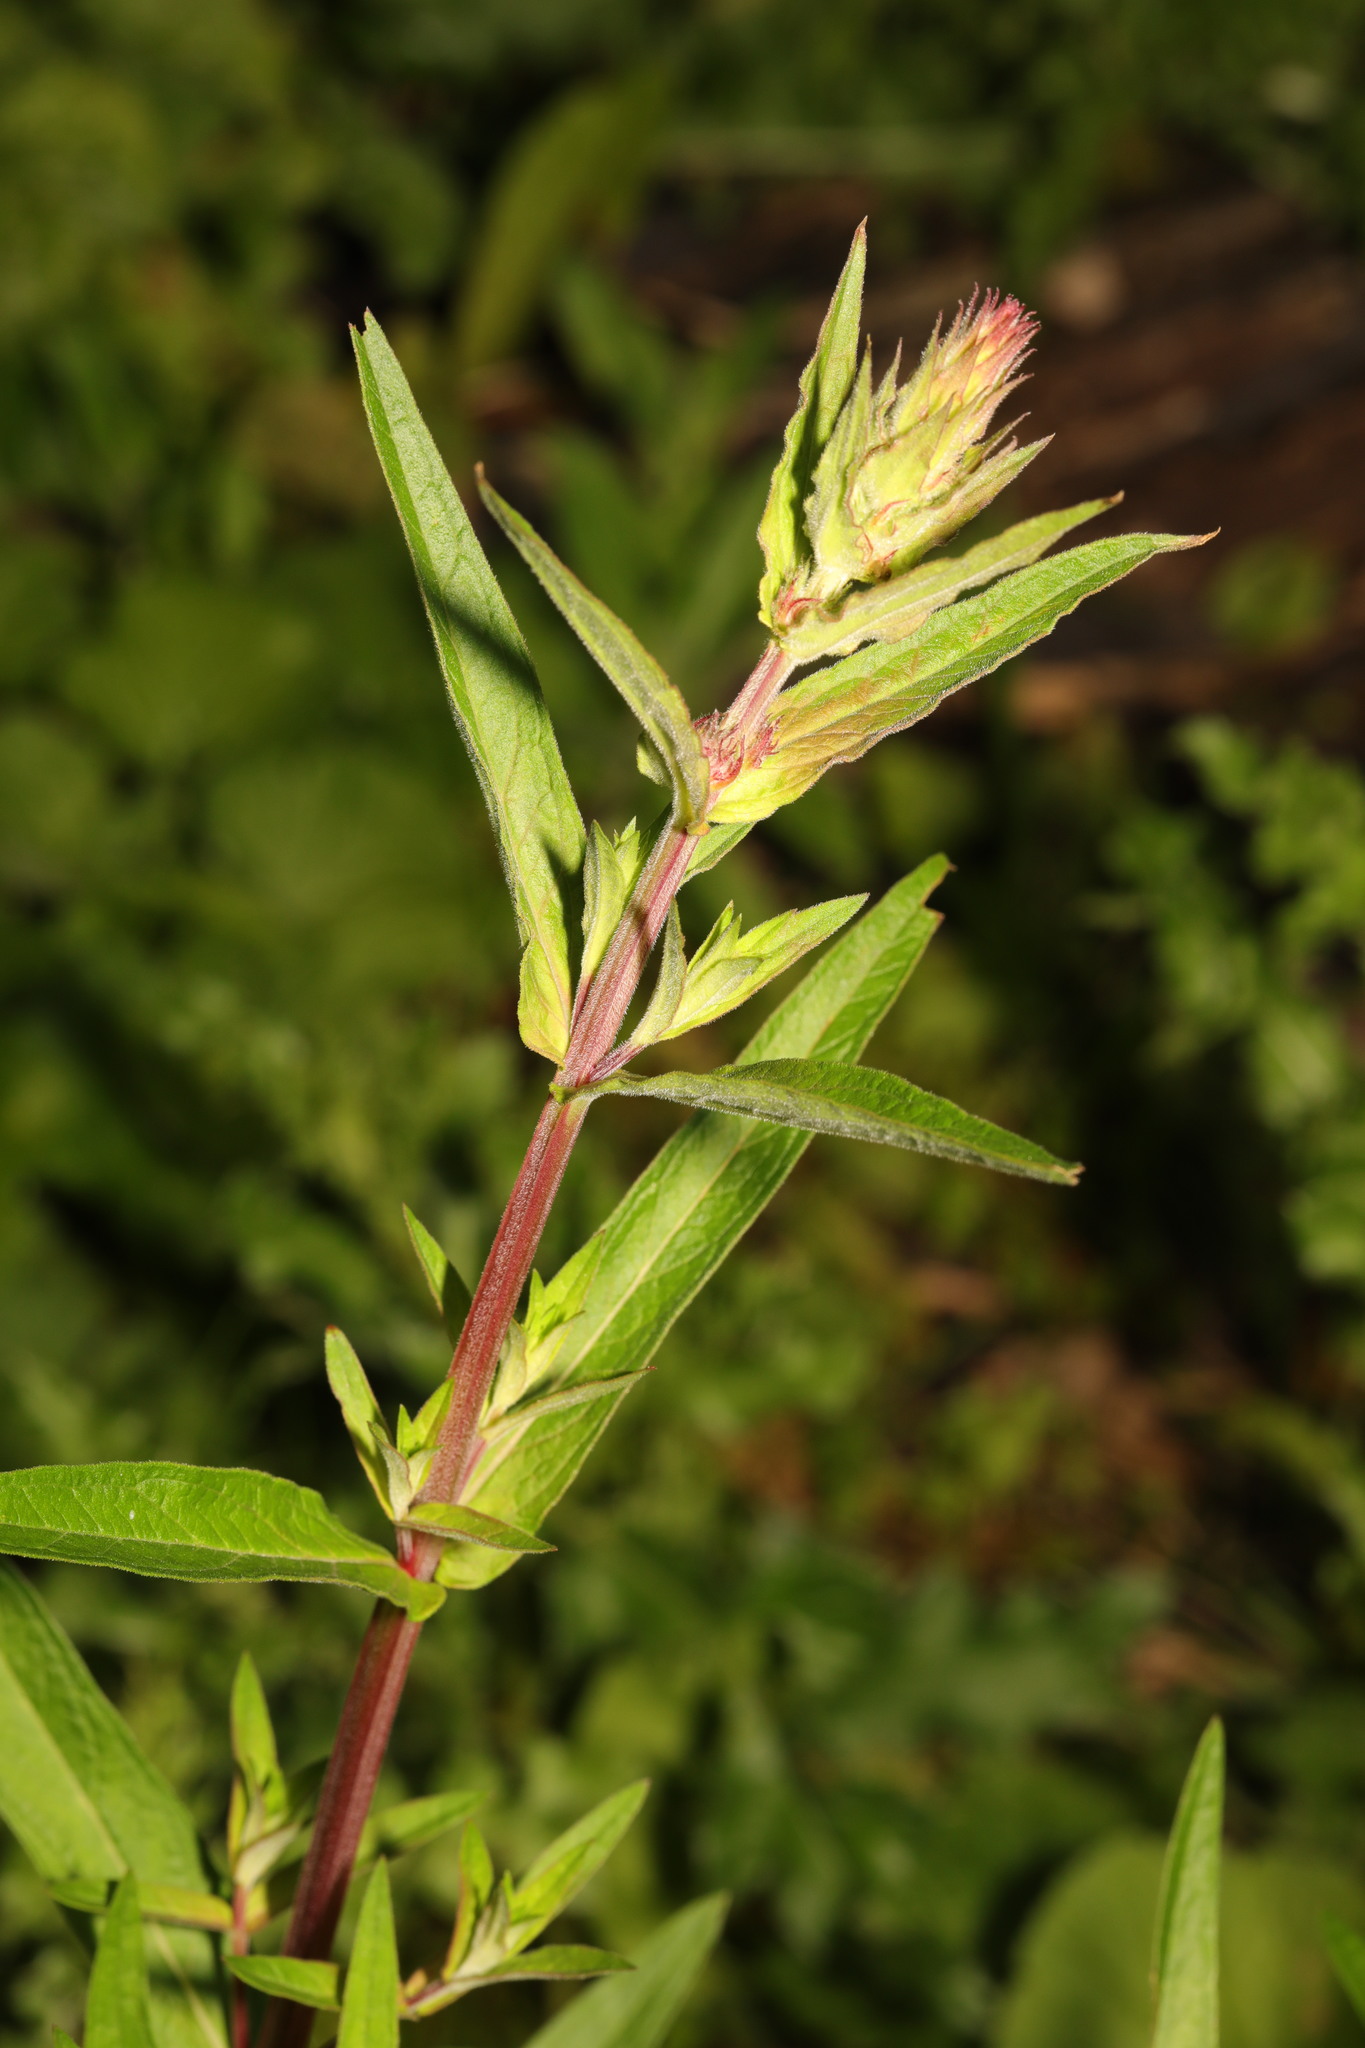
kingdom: Plantae
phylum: Tracheophyta
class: Magnoliopsida
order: Myrtales
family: Lythraceae
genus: Lythrum
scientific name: Lythrum salicaria
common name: Purple loosestrife
